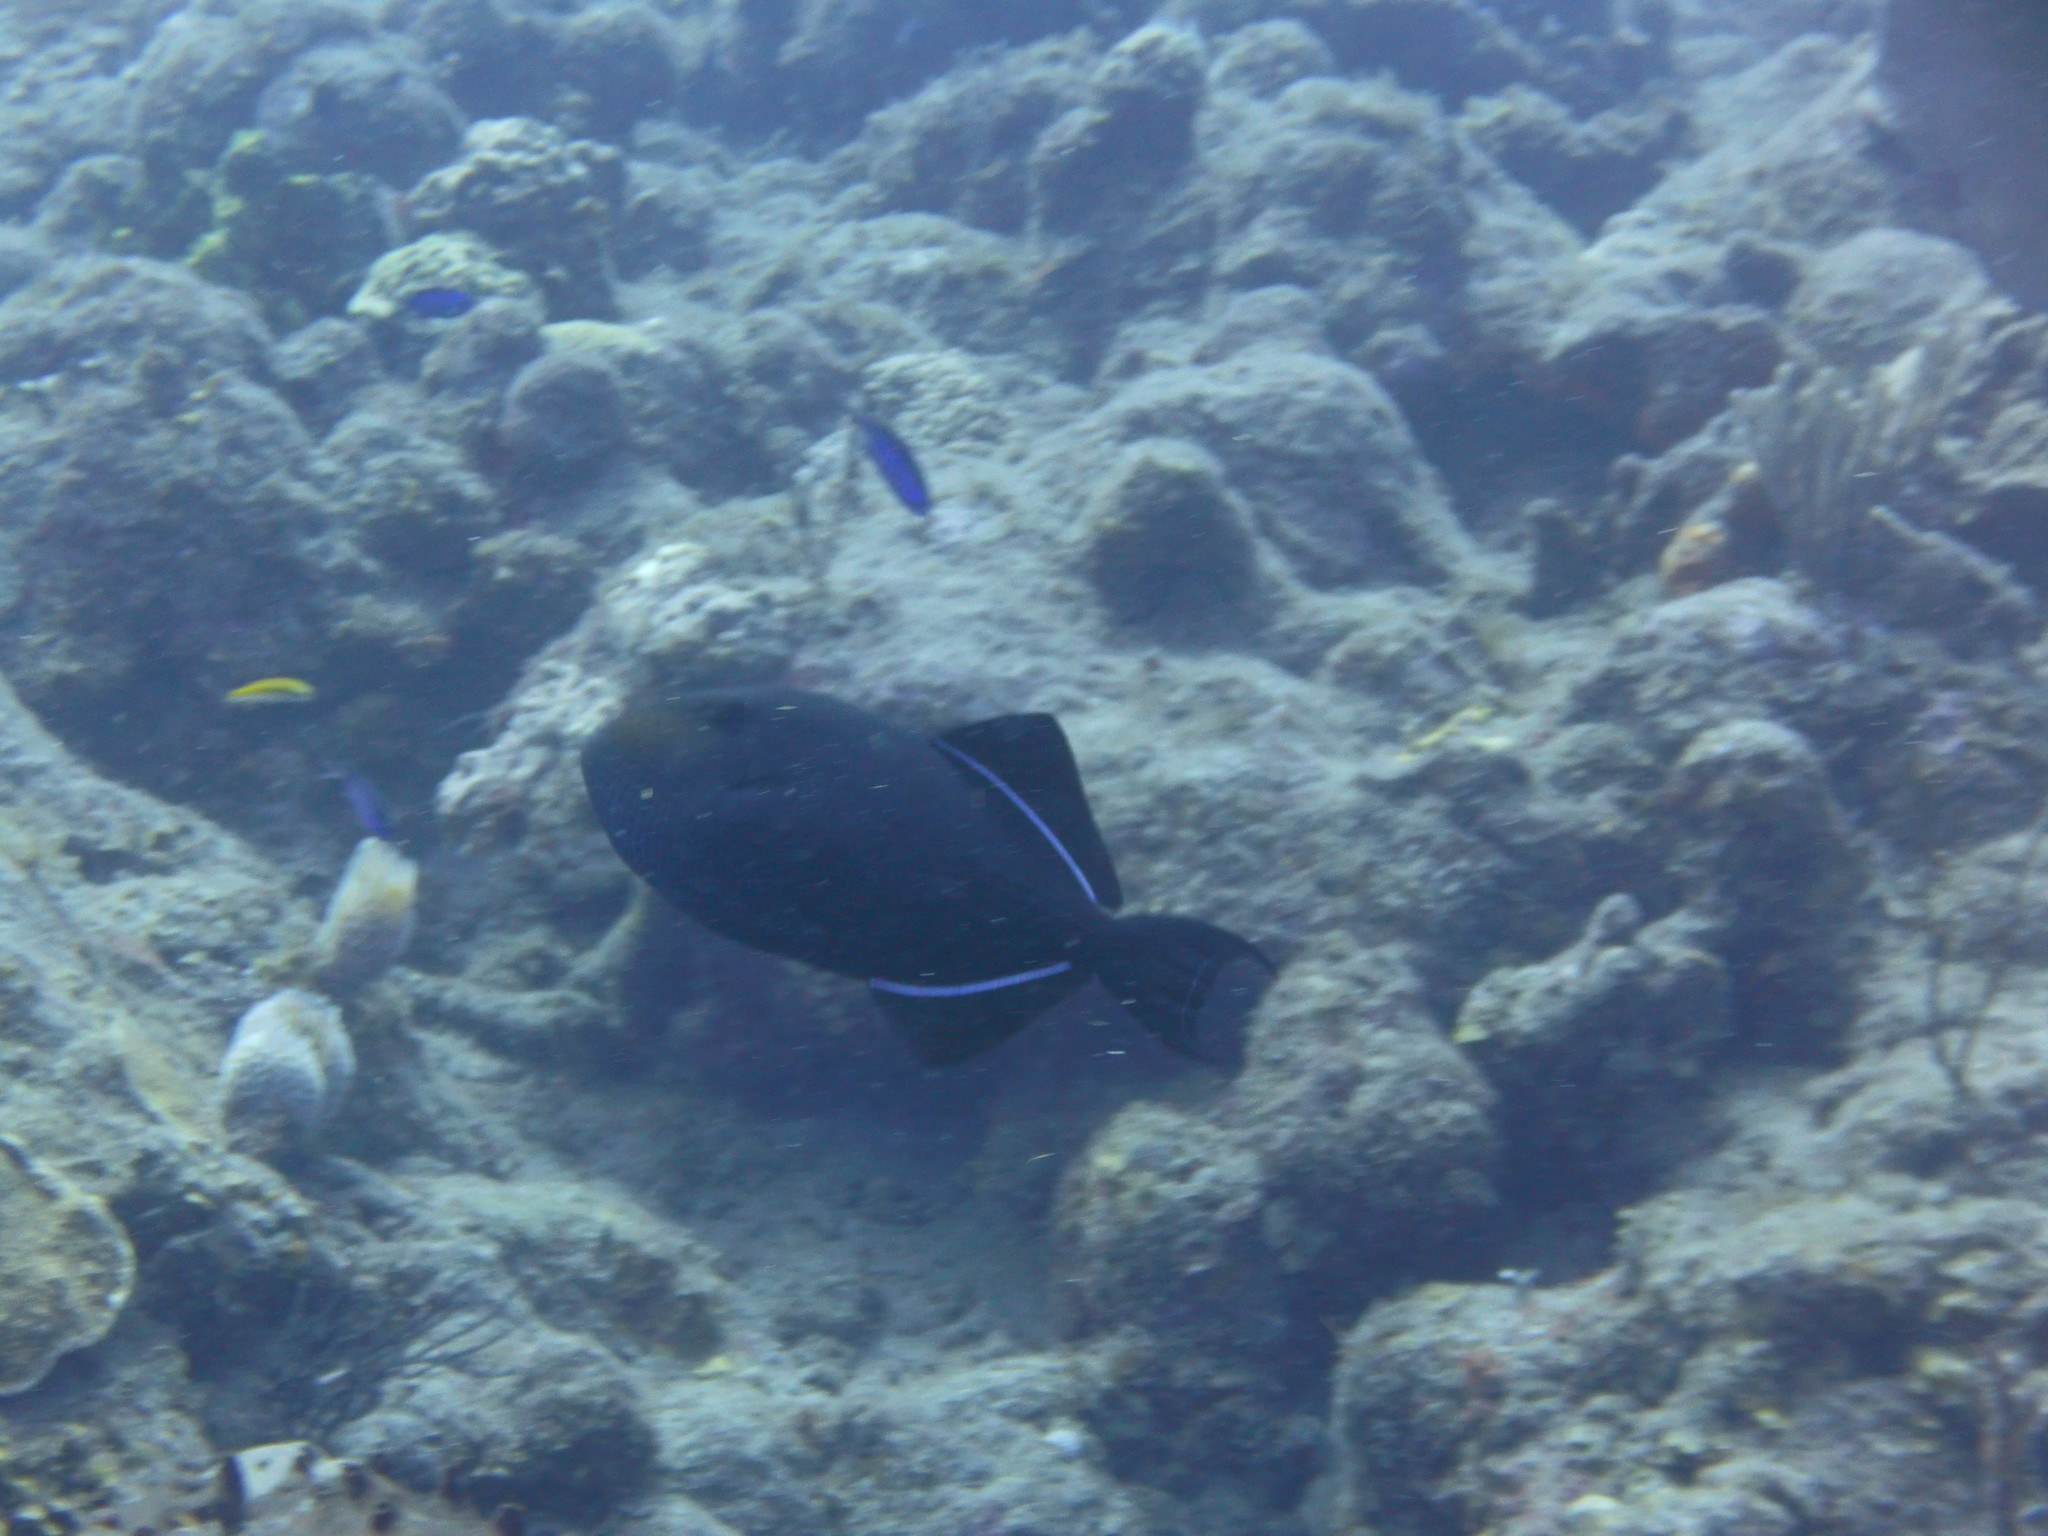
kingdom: Animalia
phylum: Chordata
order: Tetraodontiformes
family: Balistidae
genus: Melichthys
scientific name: Melichthys niger
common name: Black durgon
